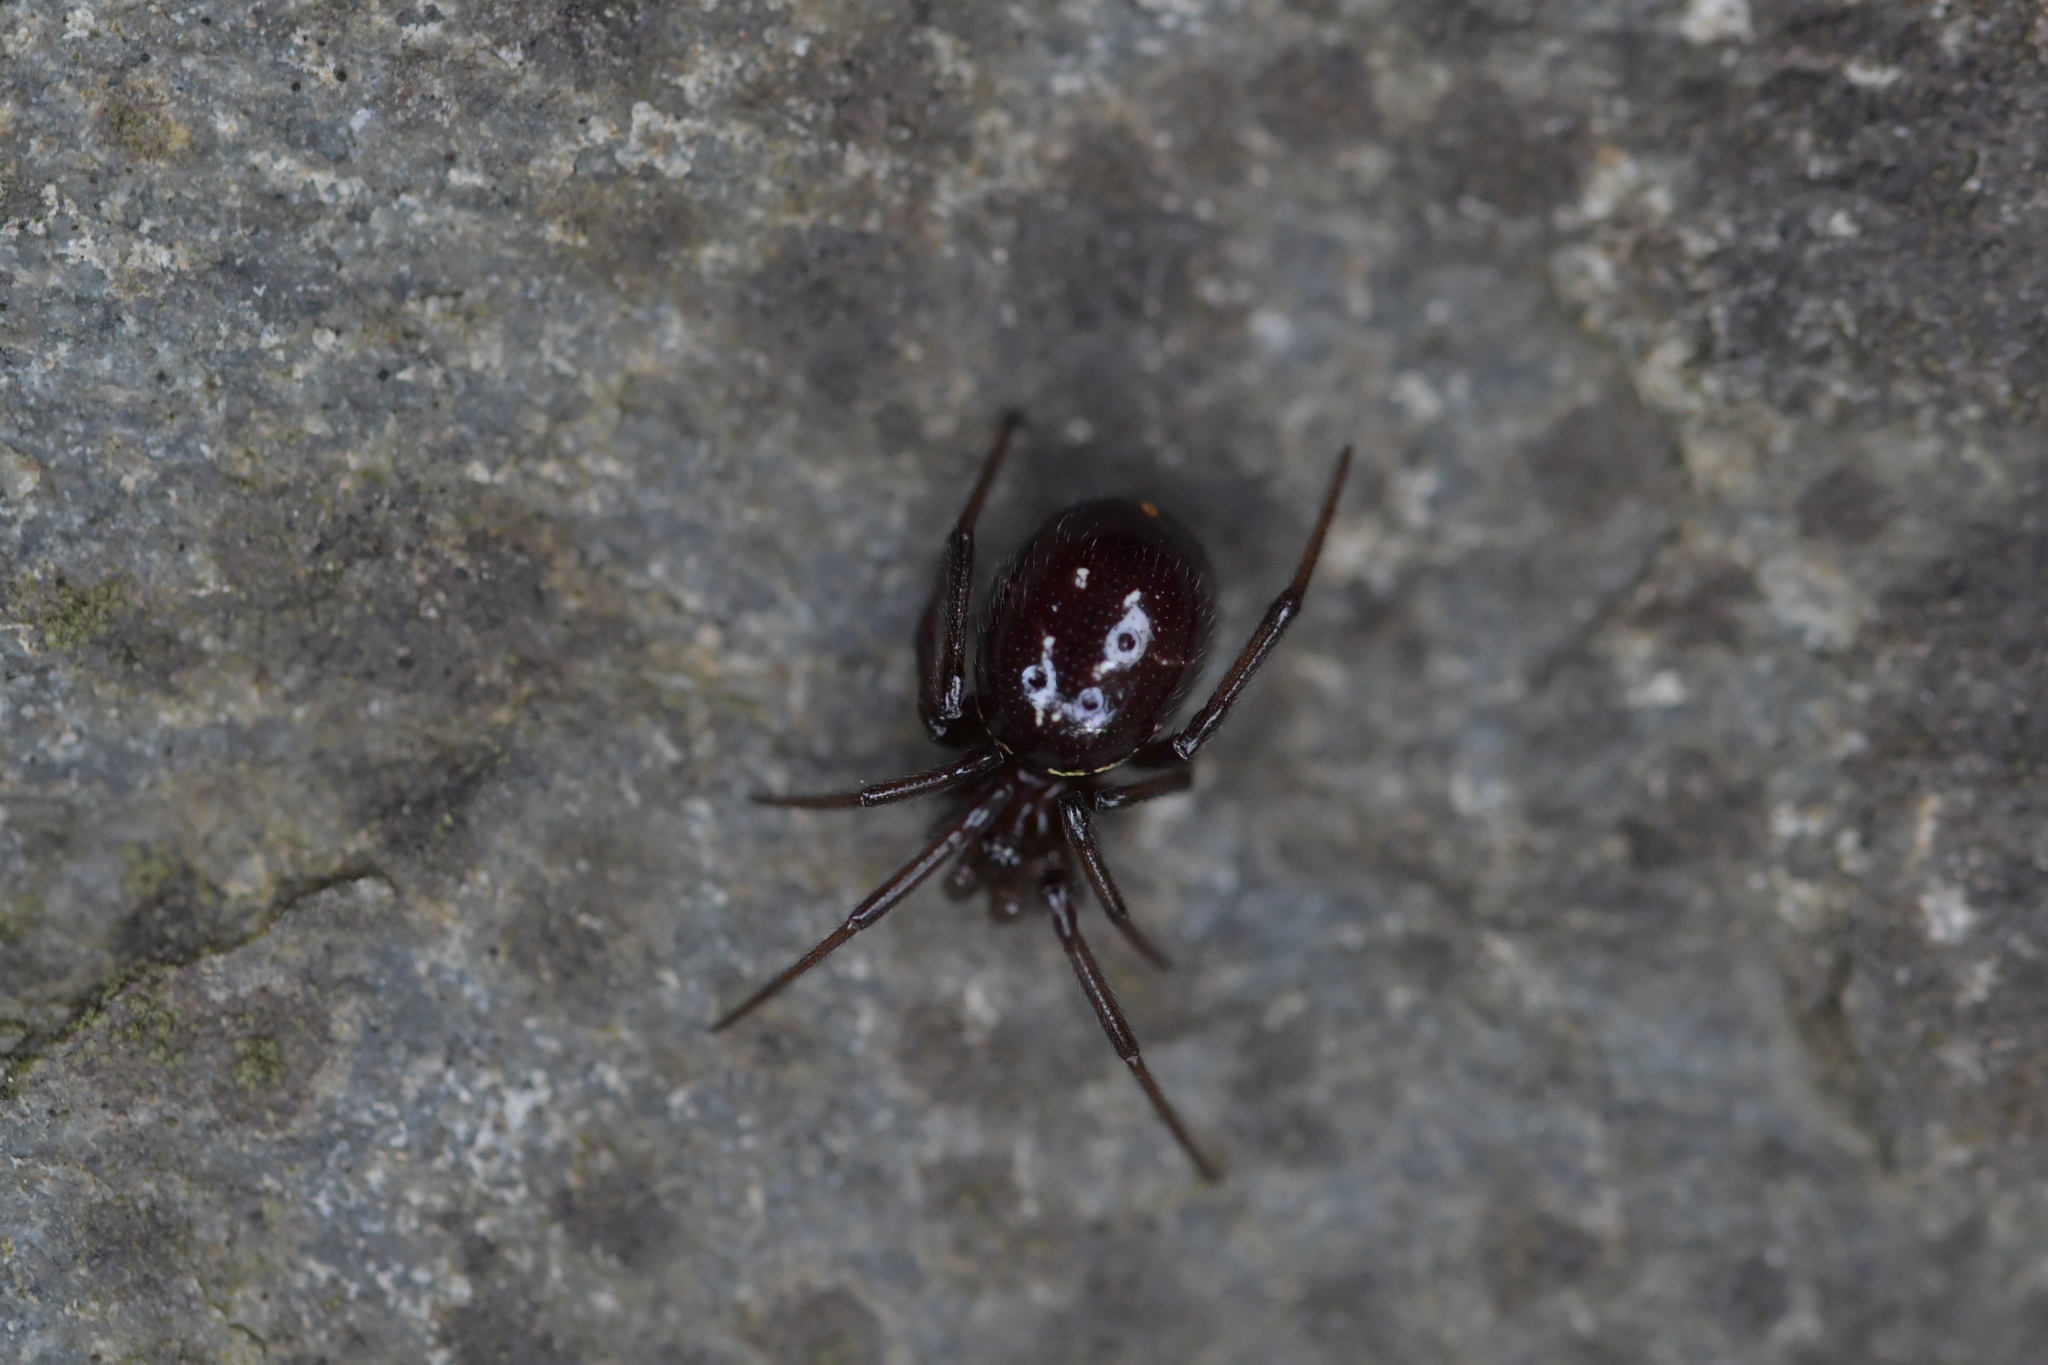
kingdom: Animalia
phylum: Arthropoda
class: Arachnida
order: Araneae
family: Theridiidae
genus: Steatoda
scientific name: Steatoda capensis
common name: Cobweb weaver
